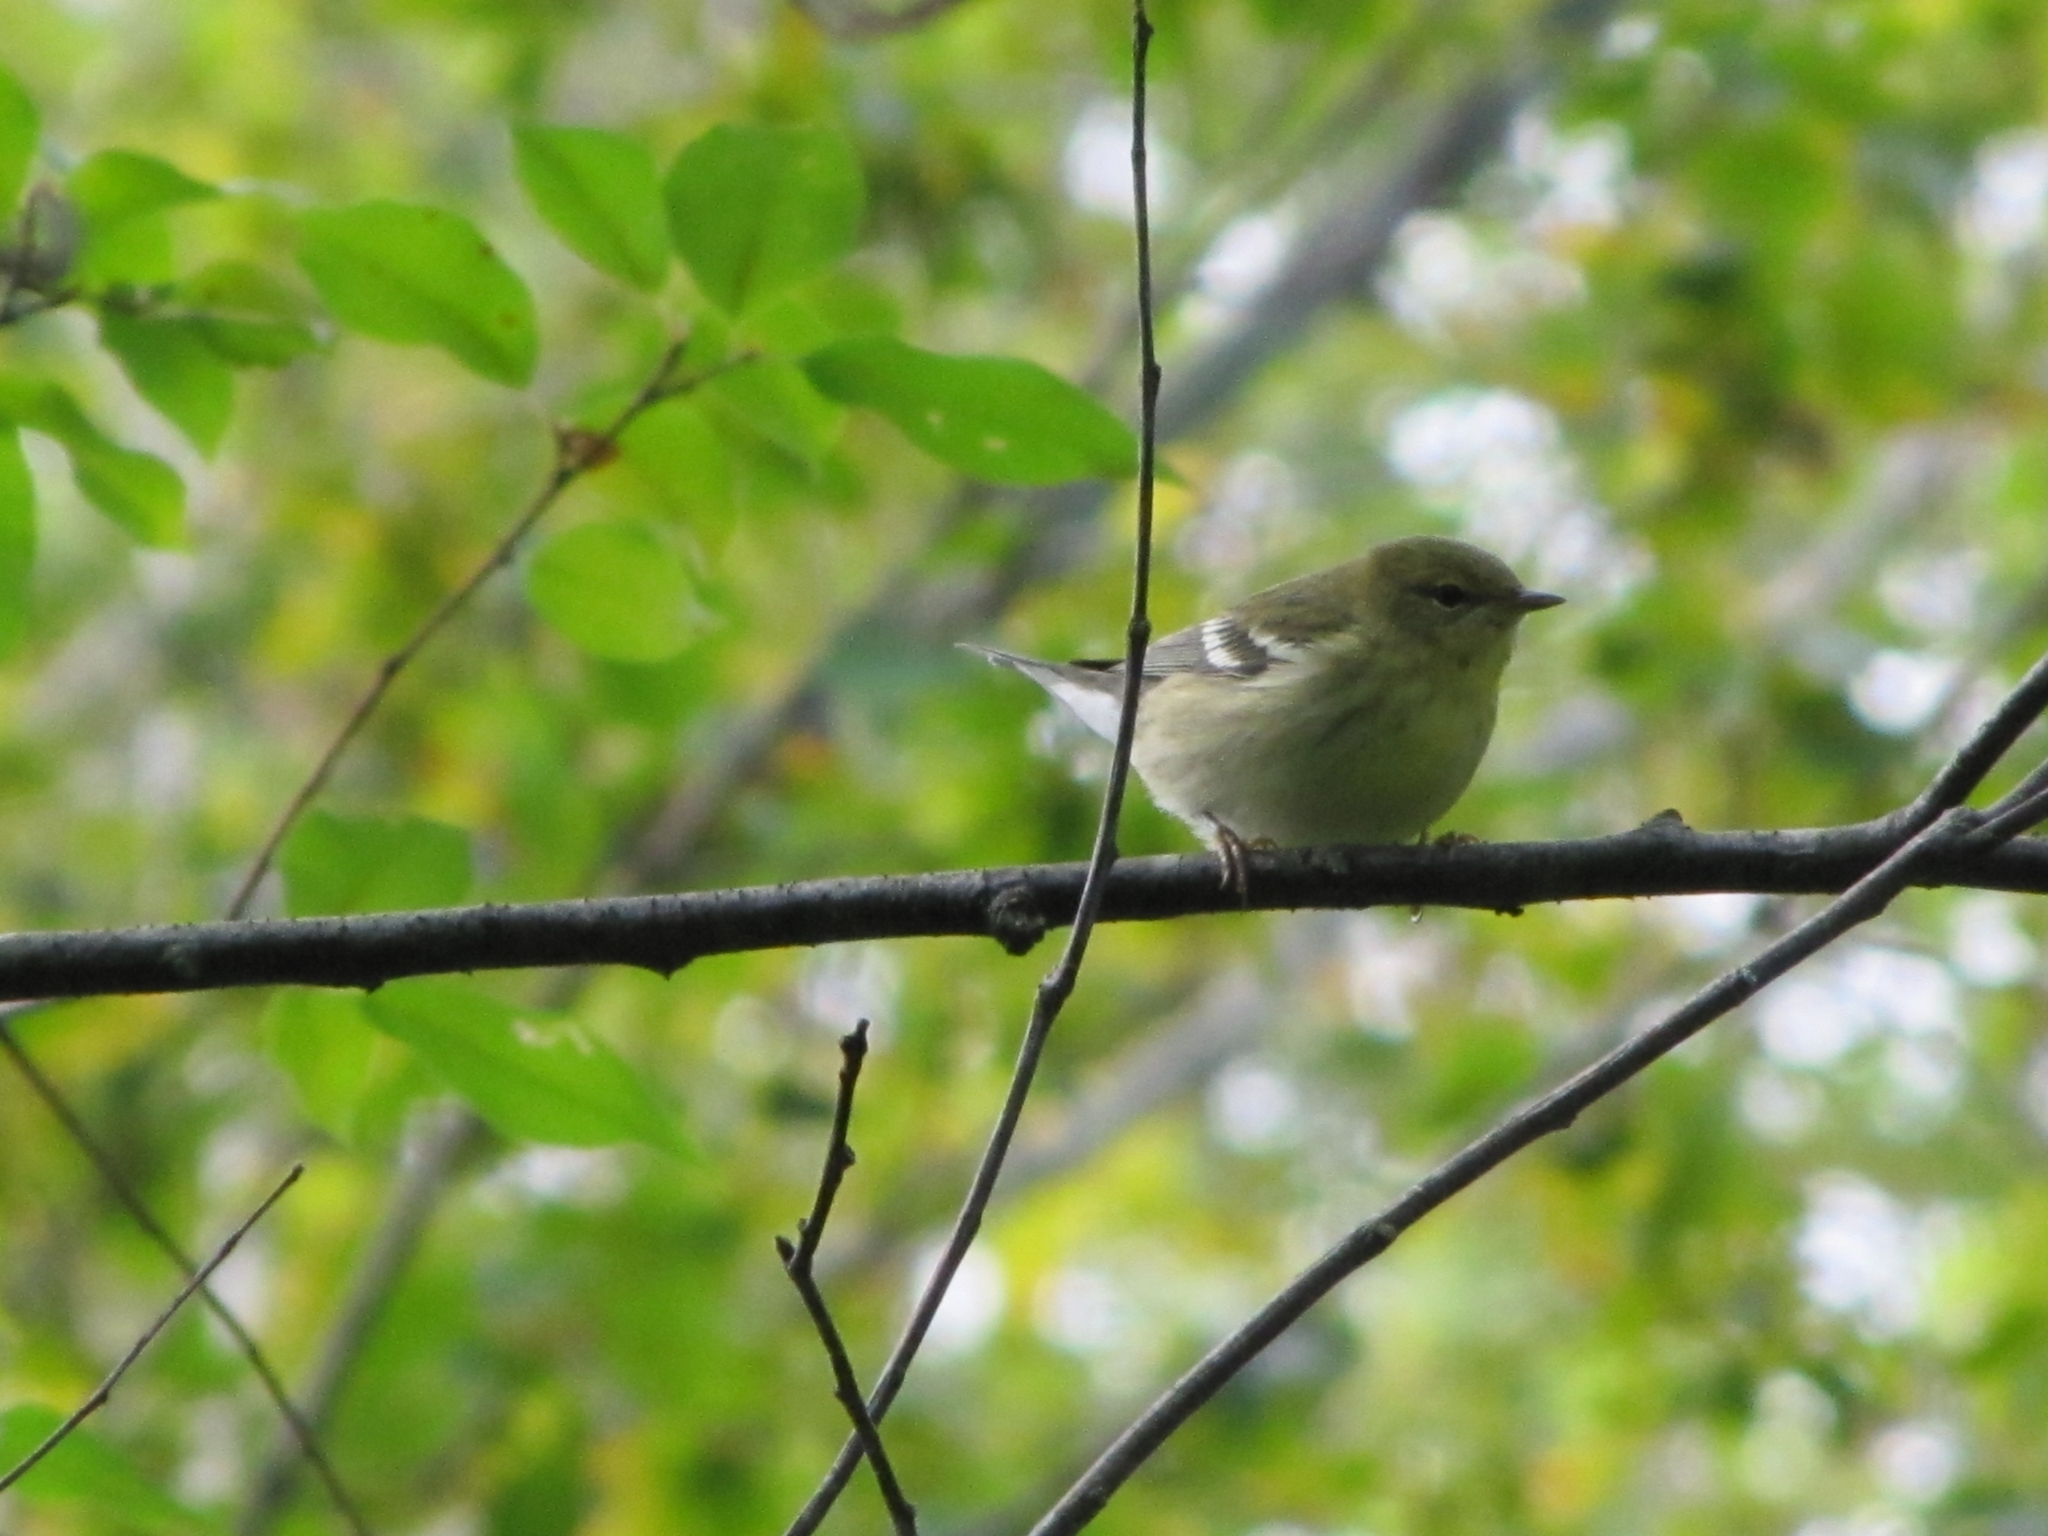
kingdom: Animalia
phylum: Chordata
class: Aves
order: Passeriformes
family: Parulidae
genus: Setophaga
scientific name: Setophaga striata
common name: Blackpoll warbler
